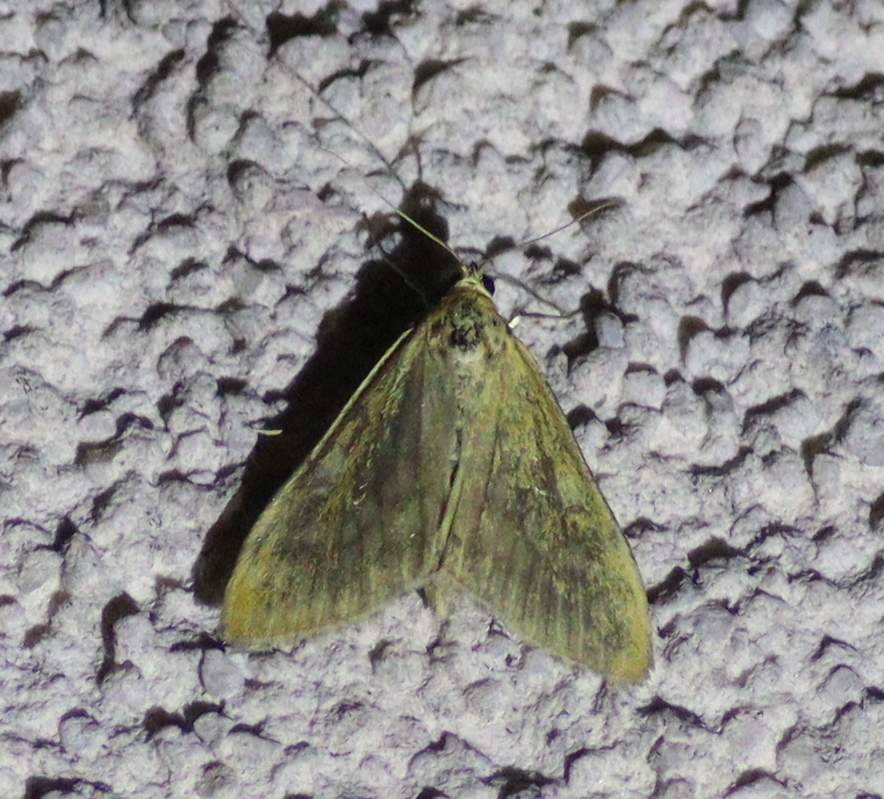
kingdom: Animalia
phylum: Arthropoda
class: Insecta
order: Lepidoptera
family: Crambidae
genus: Sitochroa
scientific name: Sitochroa verticalis
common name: Lesser pearl
